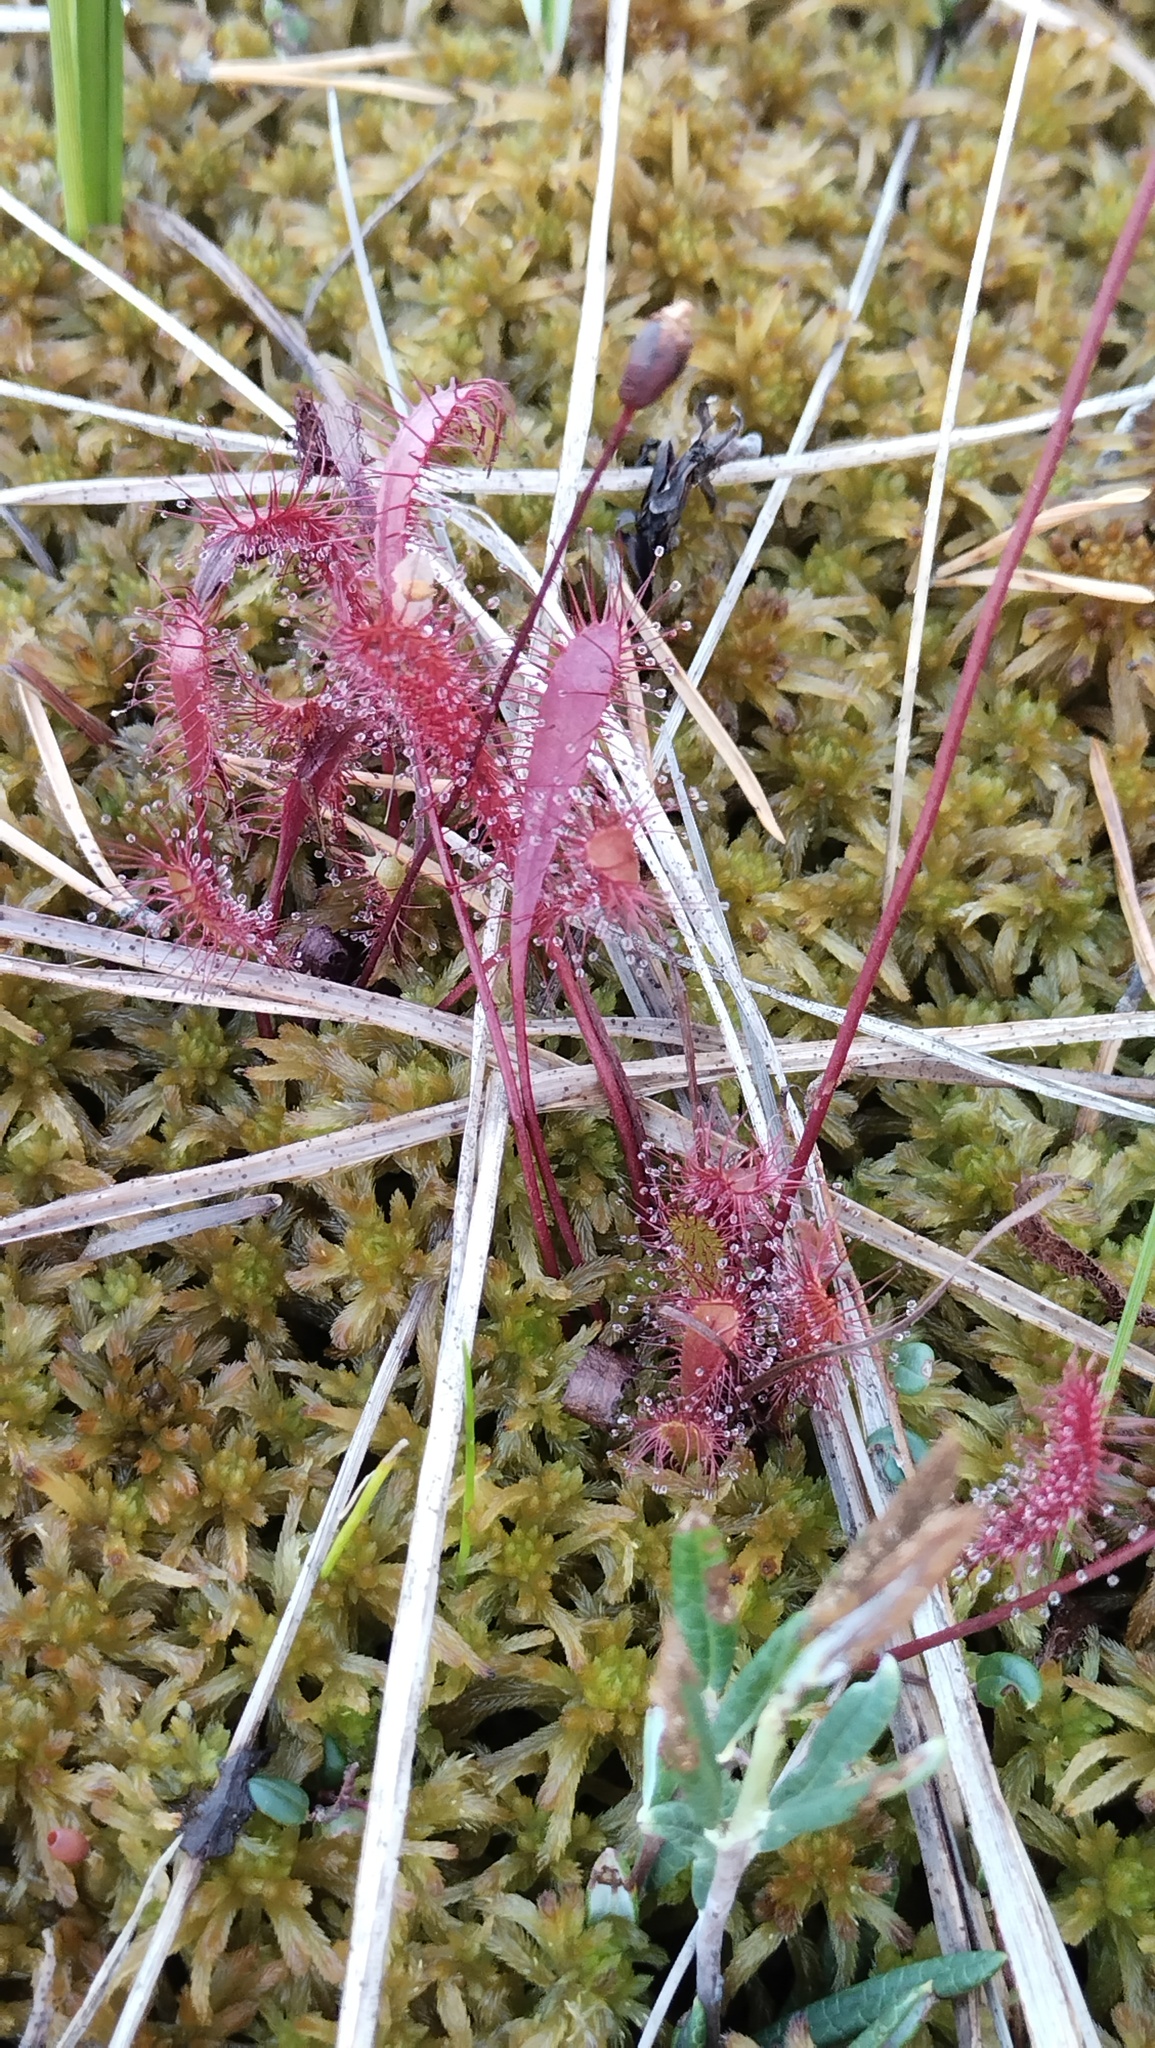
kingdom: Plantae
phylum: Tracheophyta
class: Magnoliopsida
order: Caryophyllales
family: Droseraceae
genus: Drosera
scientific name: Drosera anglica
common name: Great sundew
